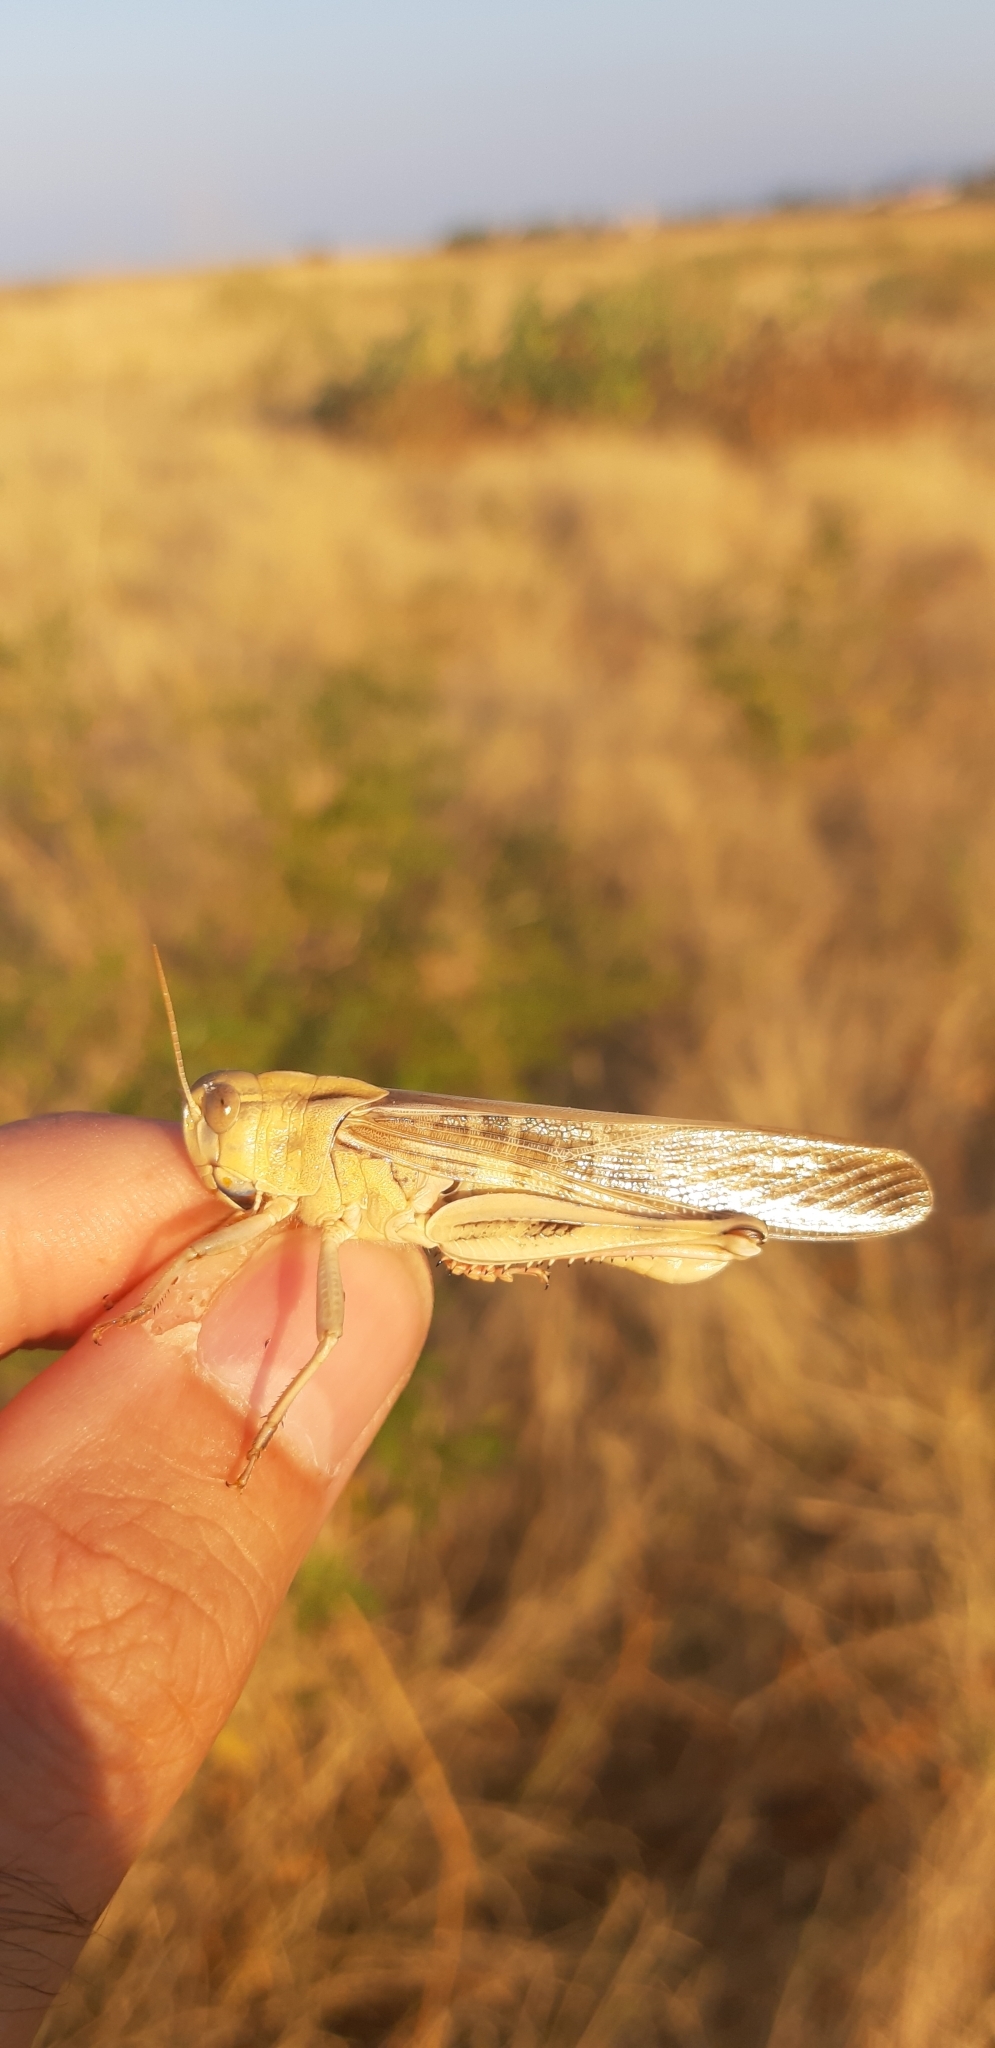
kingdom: Animalia
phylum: Arthropoda
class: Insecta
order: Orthoptera
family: Acrididae
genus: Locusta
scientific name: Locusta migratoria
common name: Migratory locust
